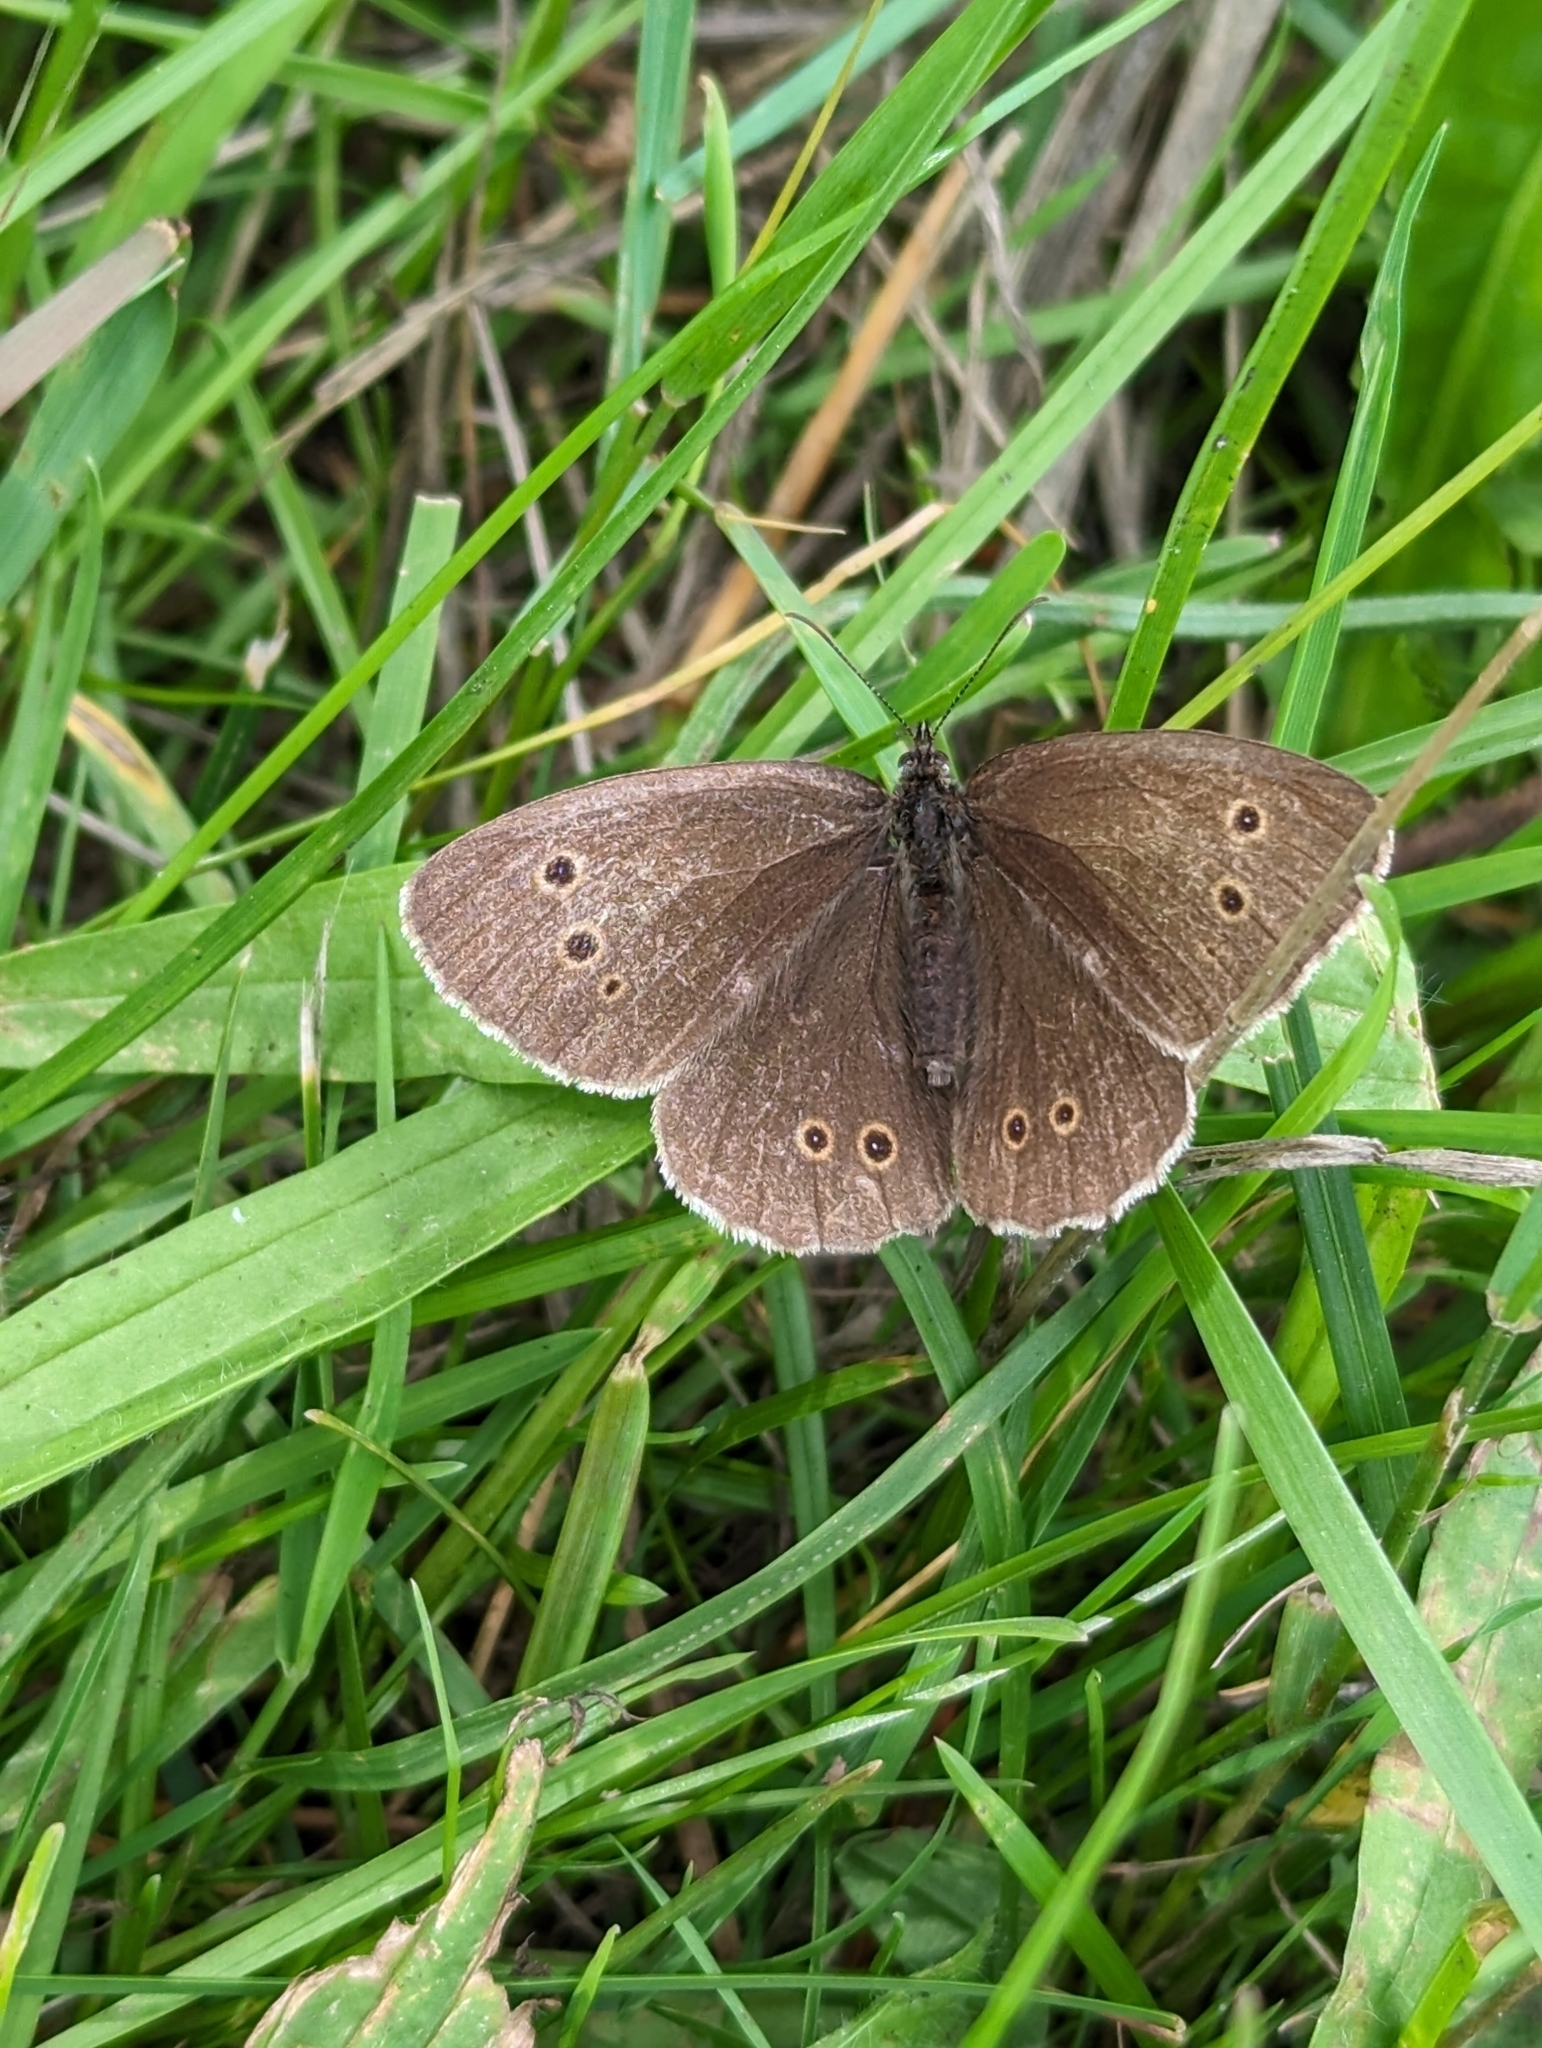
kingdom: Animalia
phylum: Arthropoda
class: Insecta
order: Lepidoptera
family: Nymphalidae
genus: Aphantopus
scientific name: Aphantopus hyperantus
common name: Ringlet
